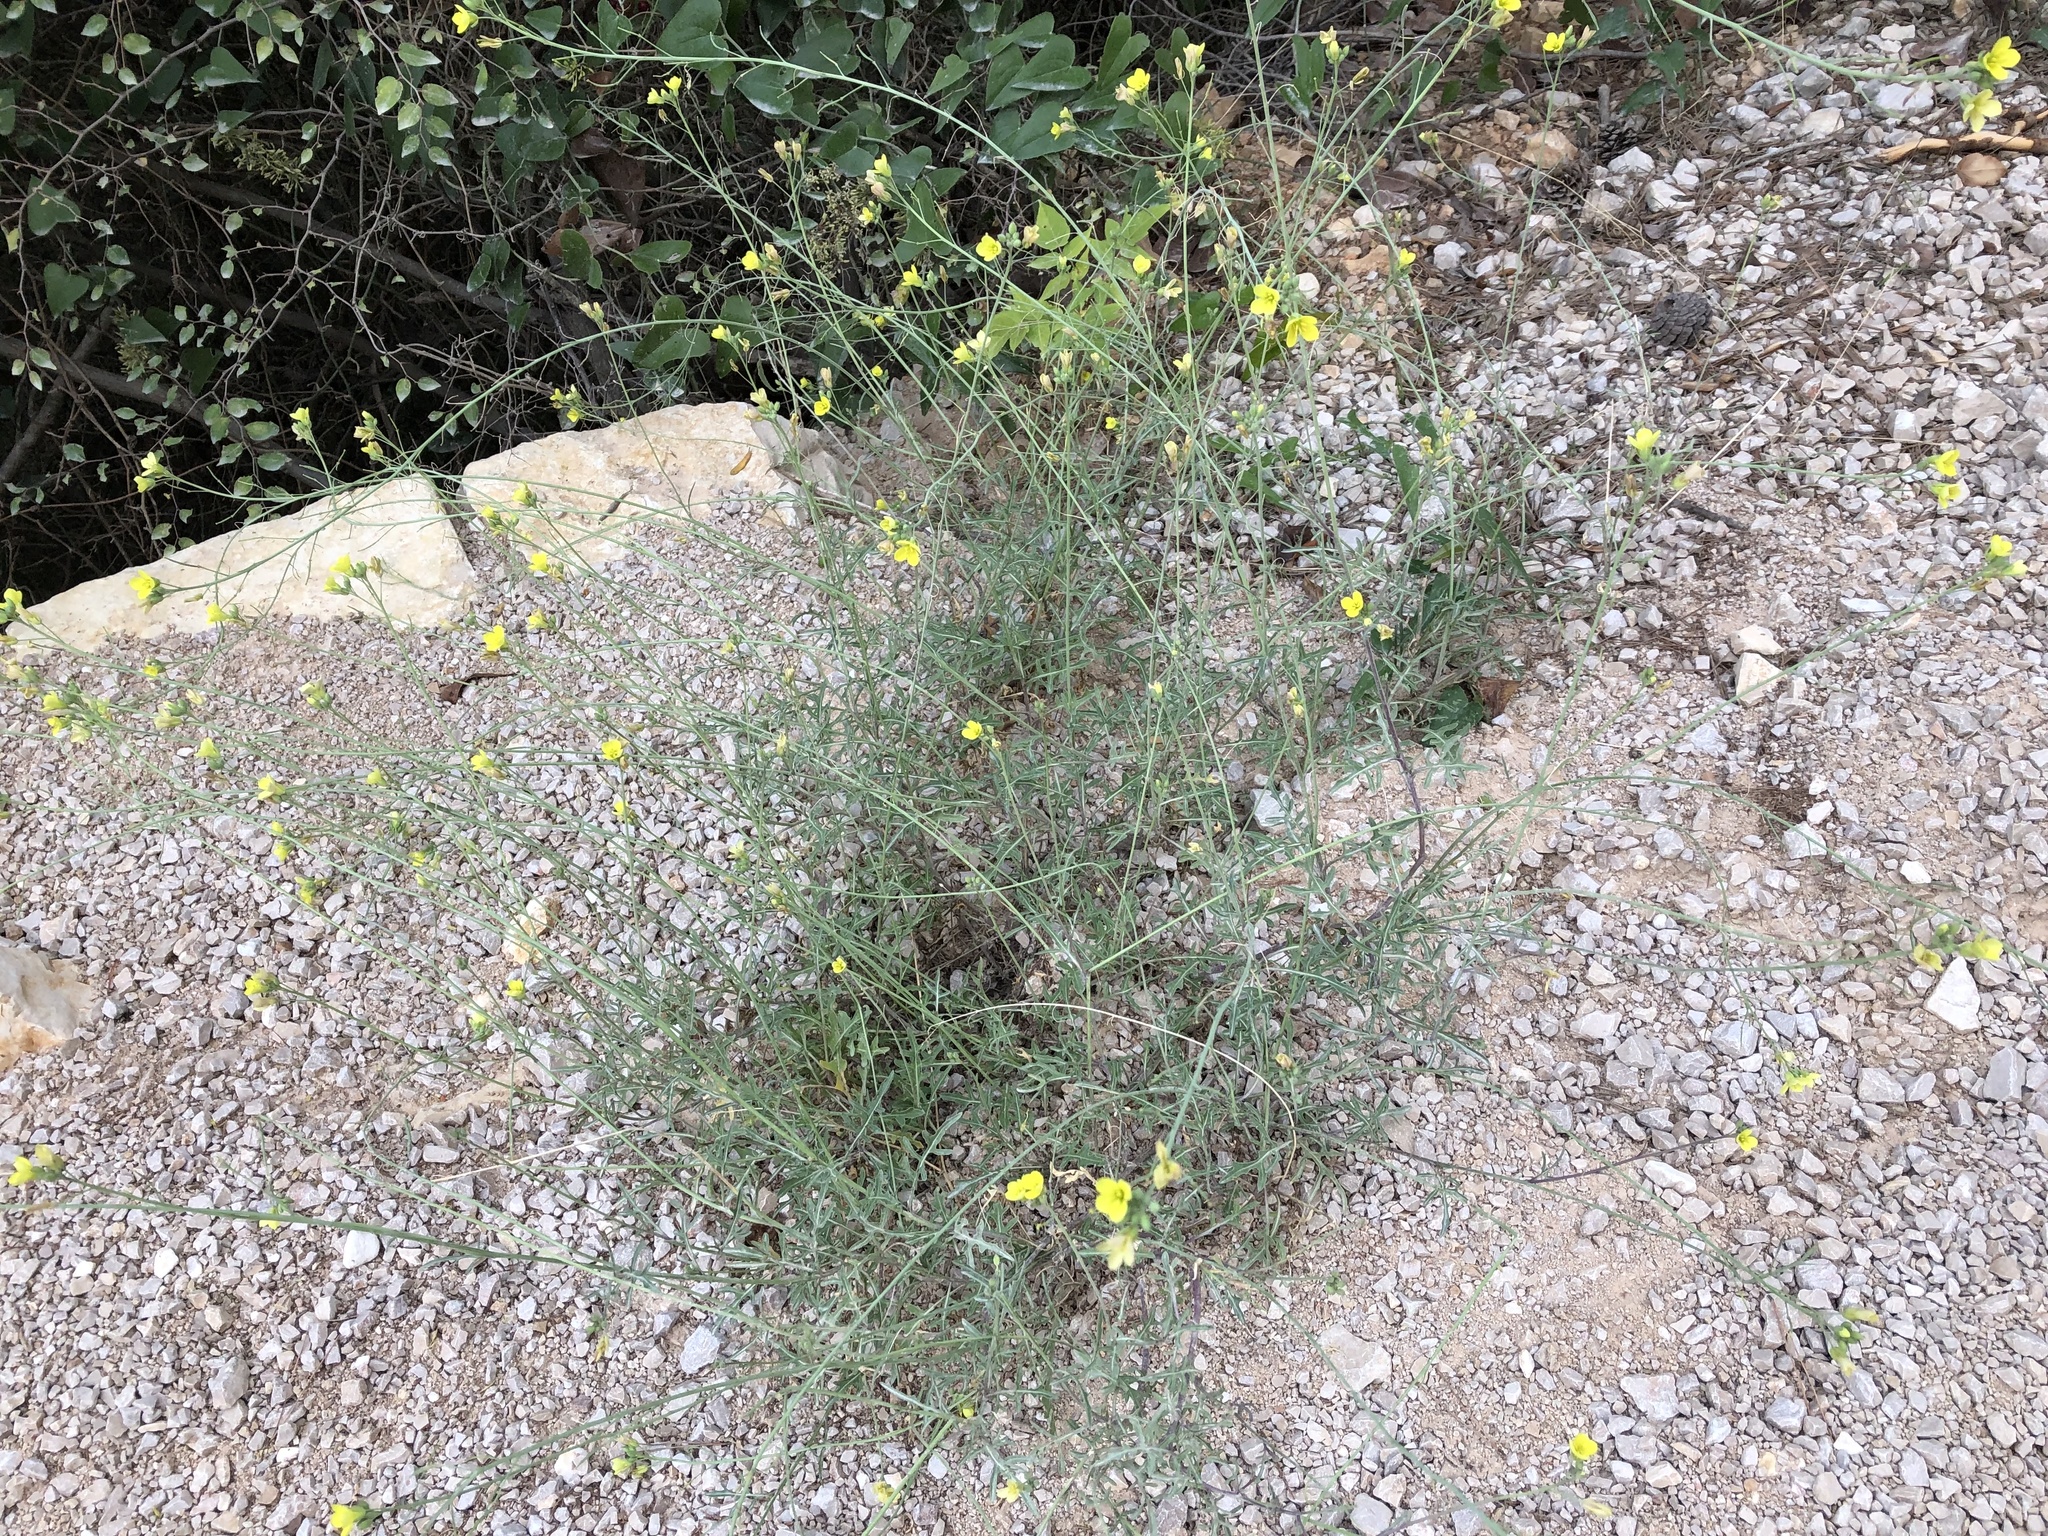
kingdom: Plantae
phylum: Tracheophyta
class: Magnoliopsida
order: Brassicales
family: Brassicaceae
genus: Diplotaxis
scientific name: Diplotaxis tenuifolia
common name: Perennial wall-rocket
